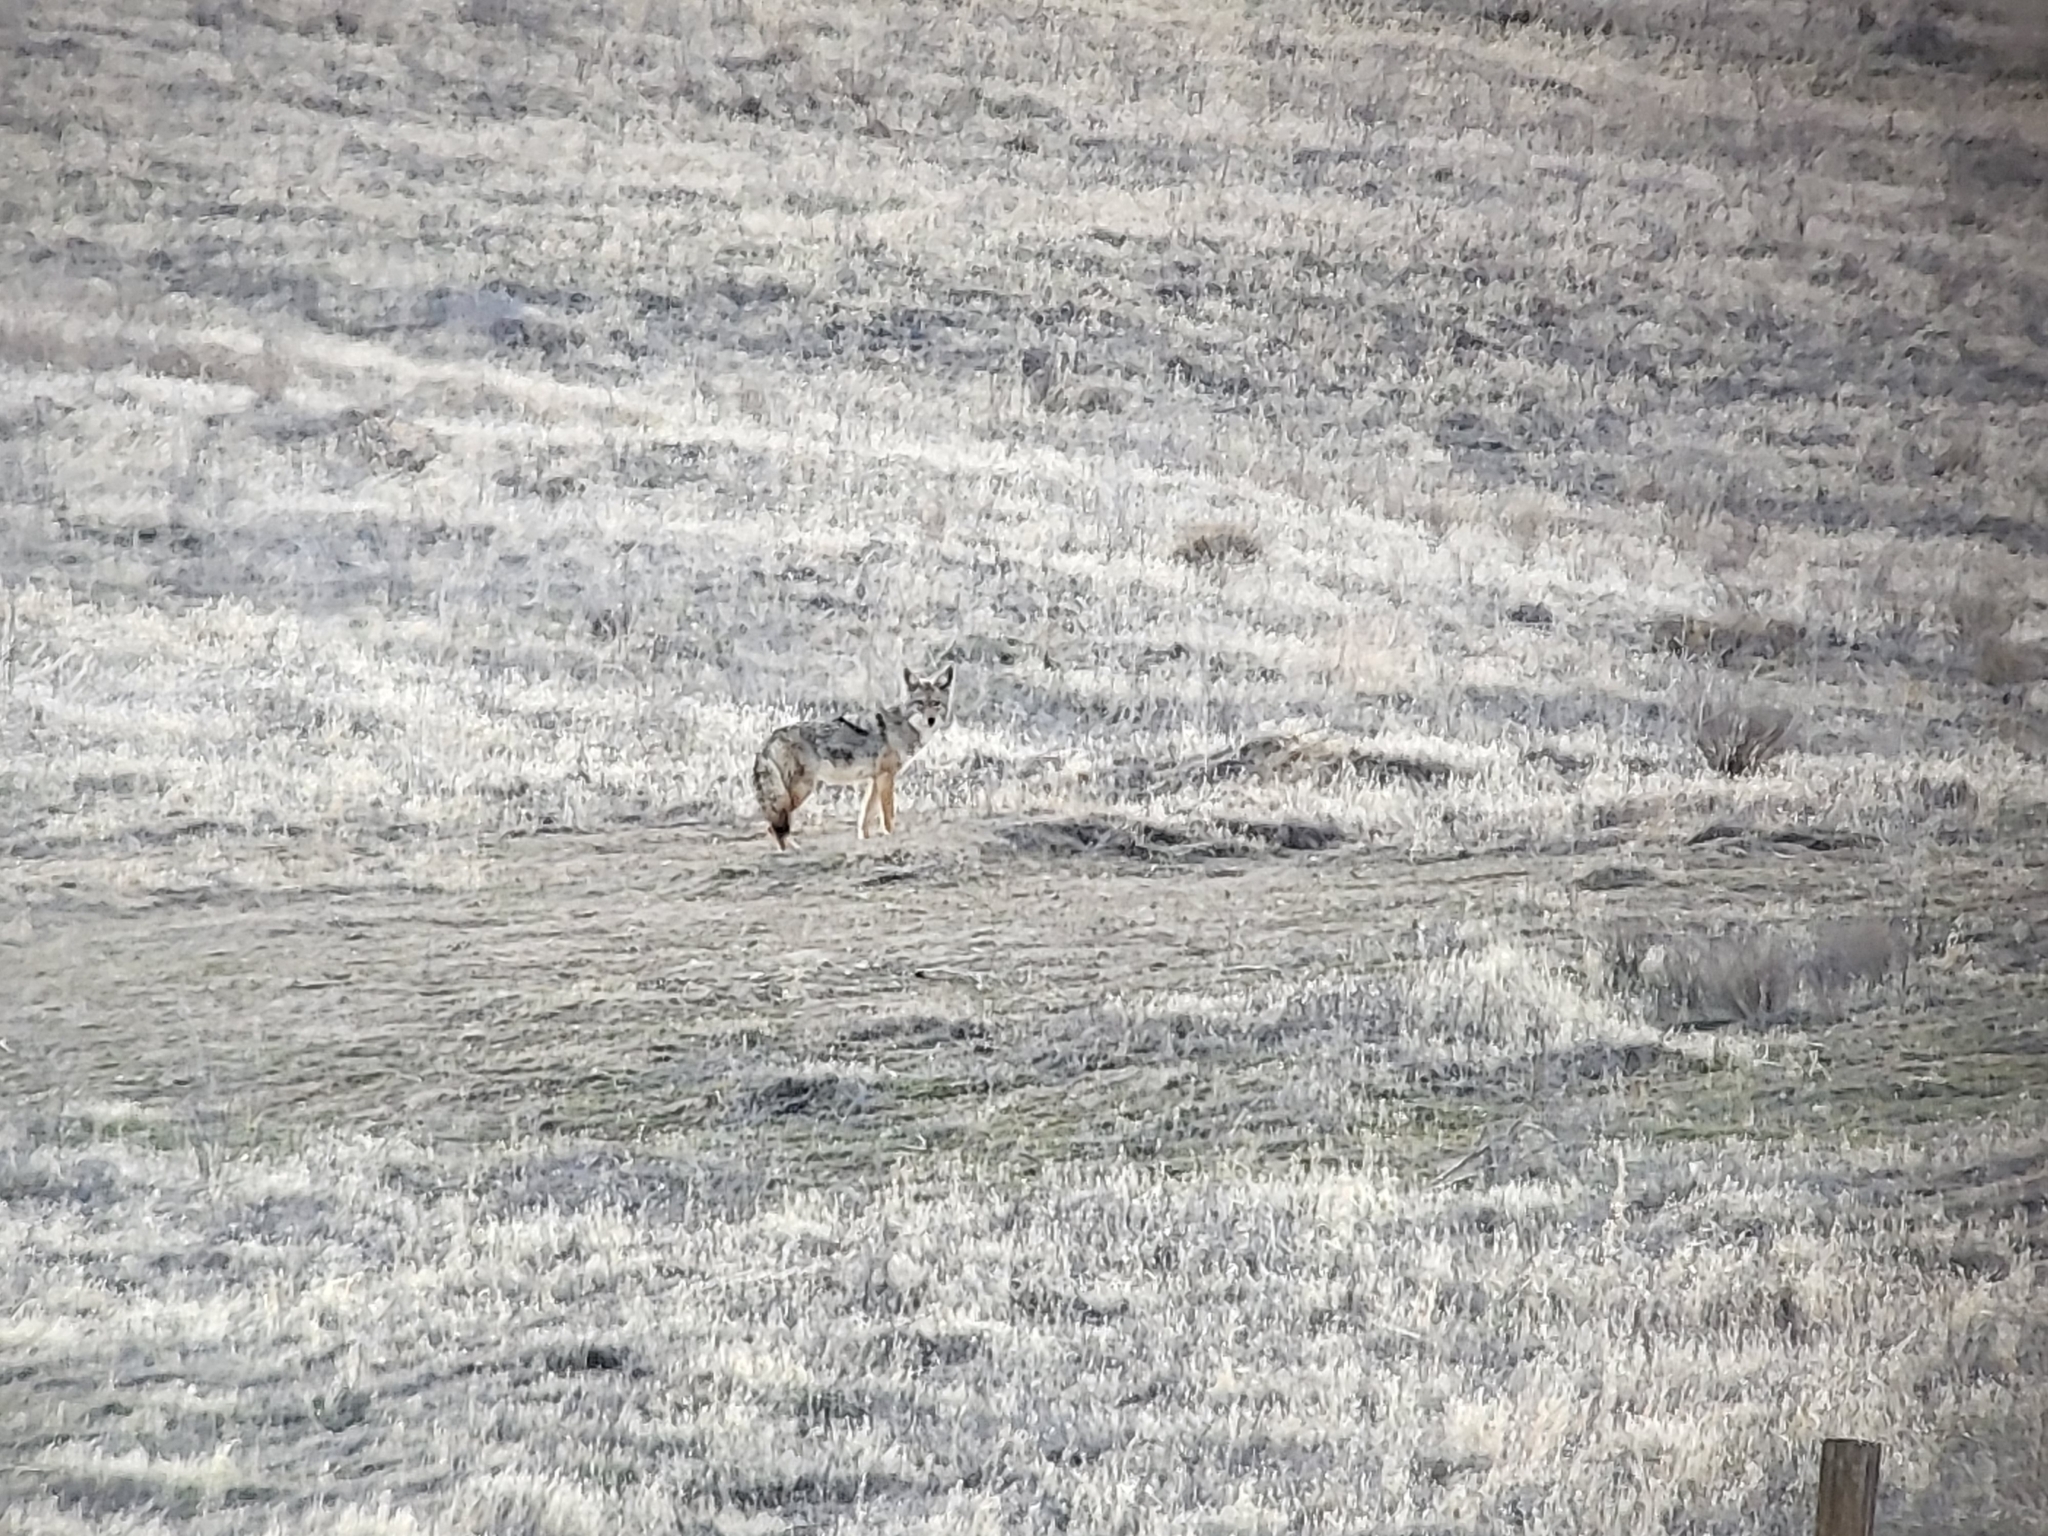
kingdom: Animalia
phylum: Chordata
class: Mammalia
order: Carnivora
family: Canidae
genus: Canis
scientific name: Canis latrans
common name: Coyote
